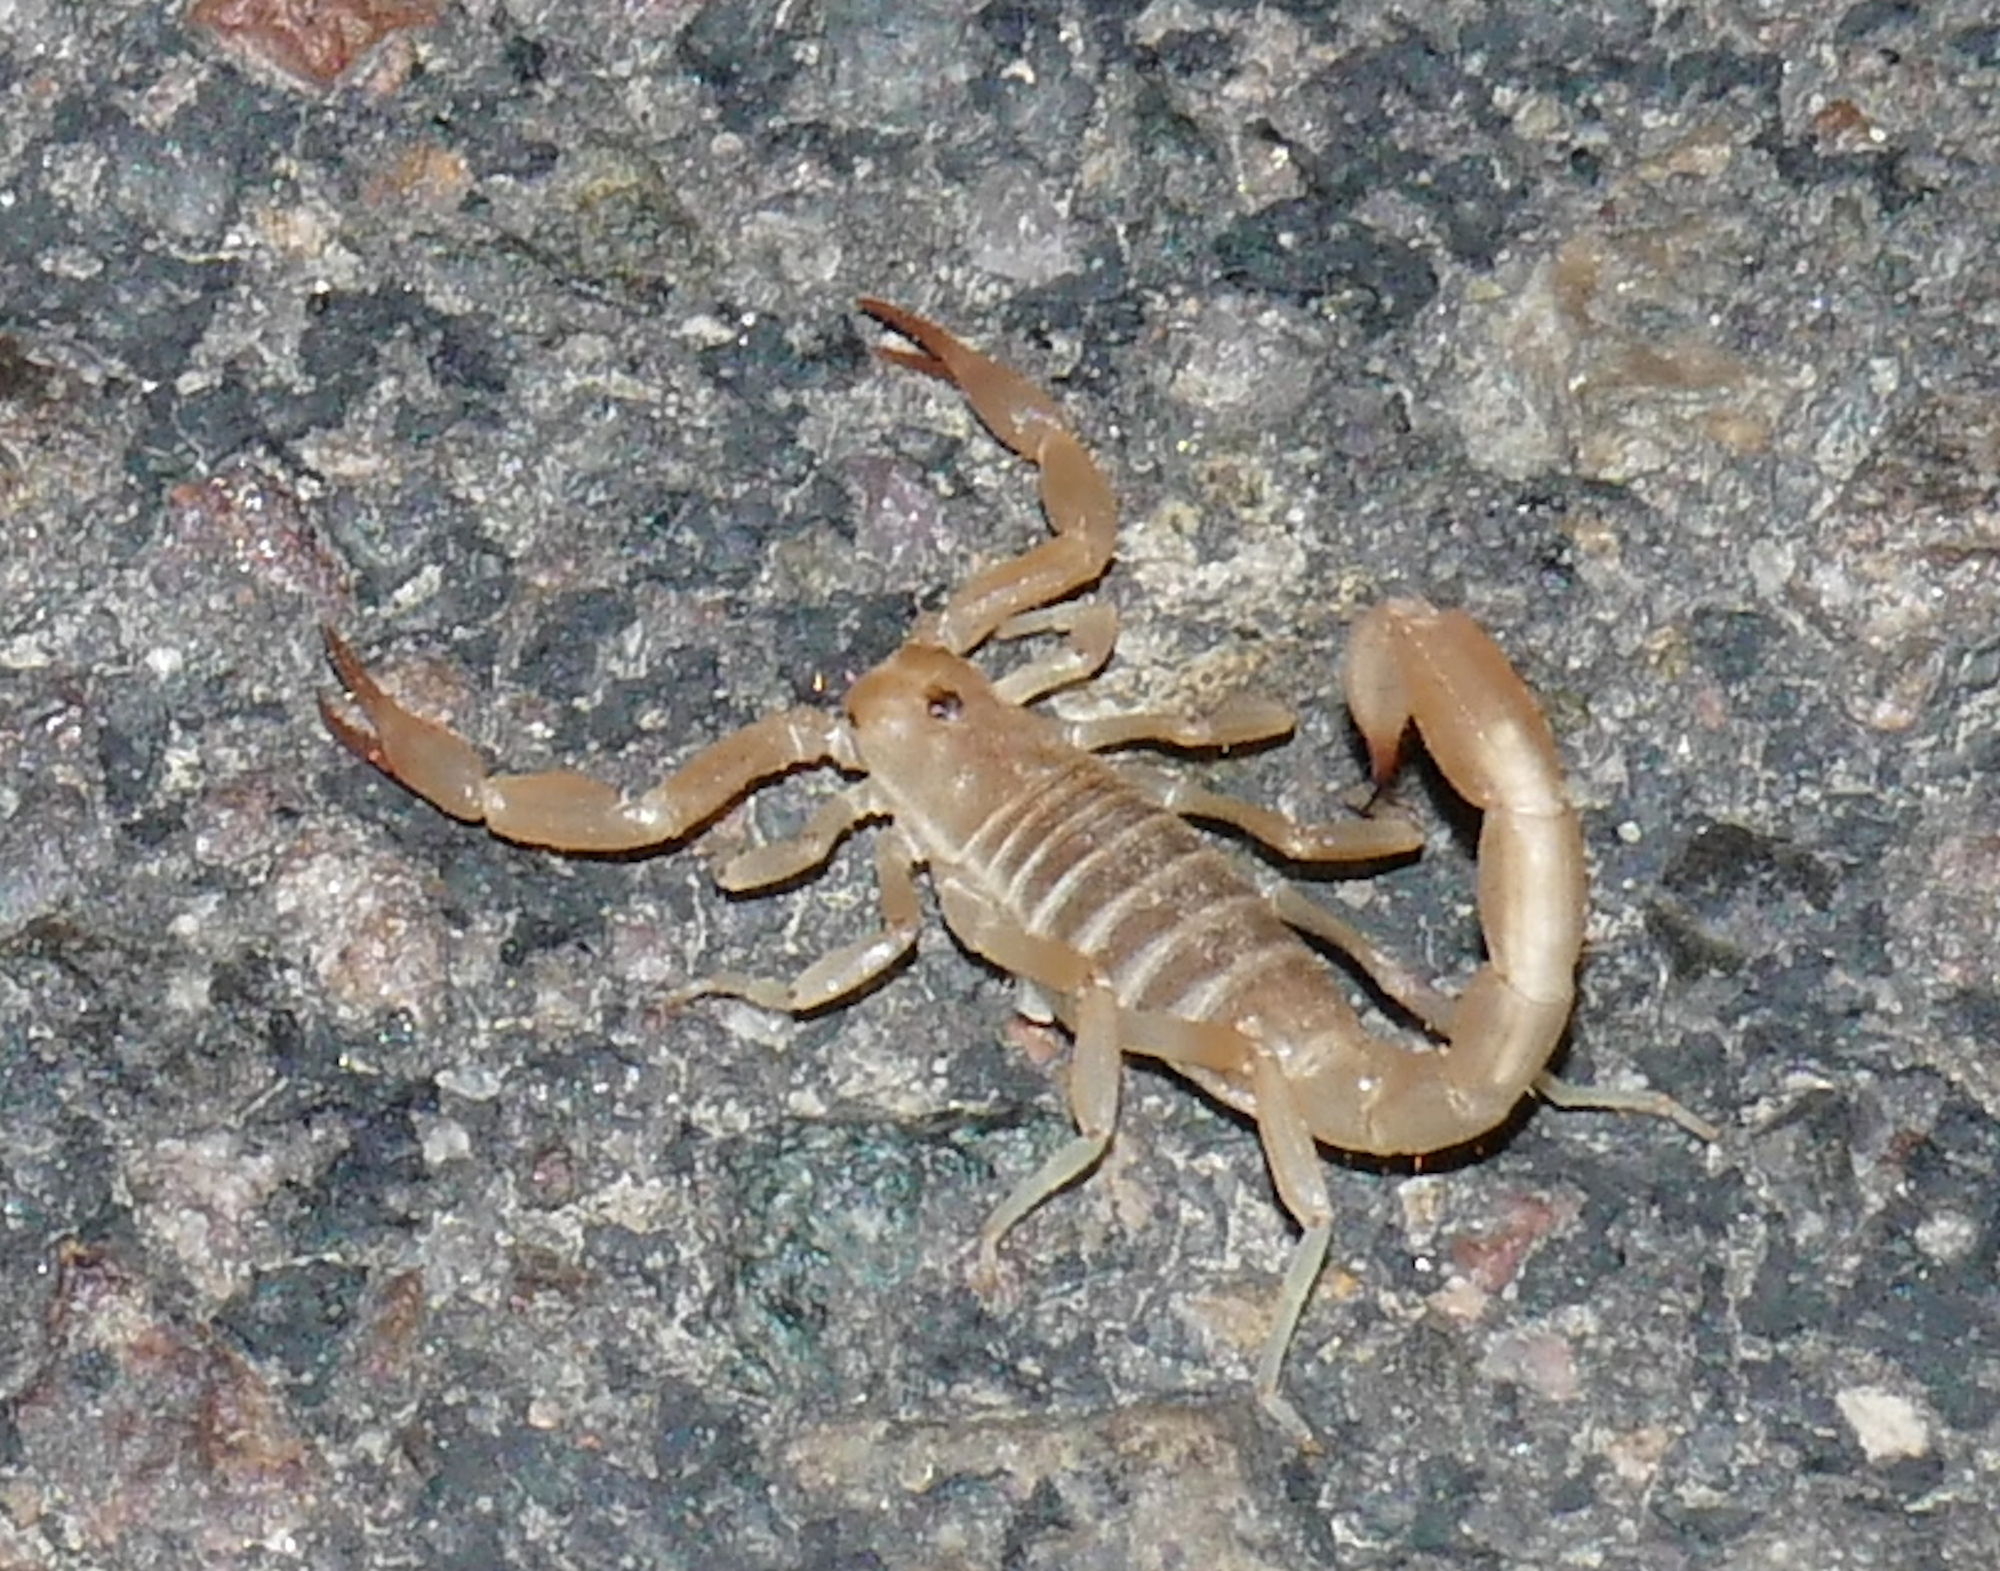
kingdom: Animalia
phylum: Arthropoda
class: Arachnida
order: Scorpiones
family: Vaejovidae
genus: Paravaejovis
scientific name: Paravaejovis confusus
